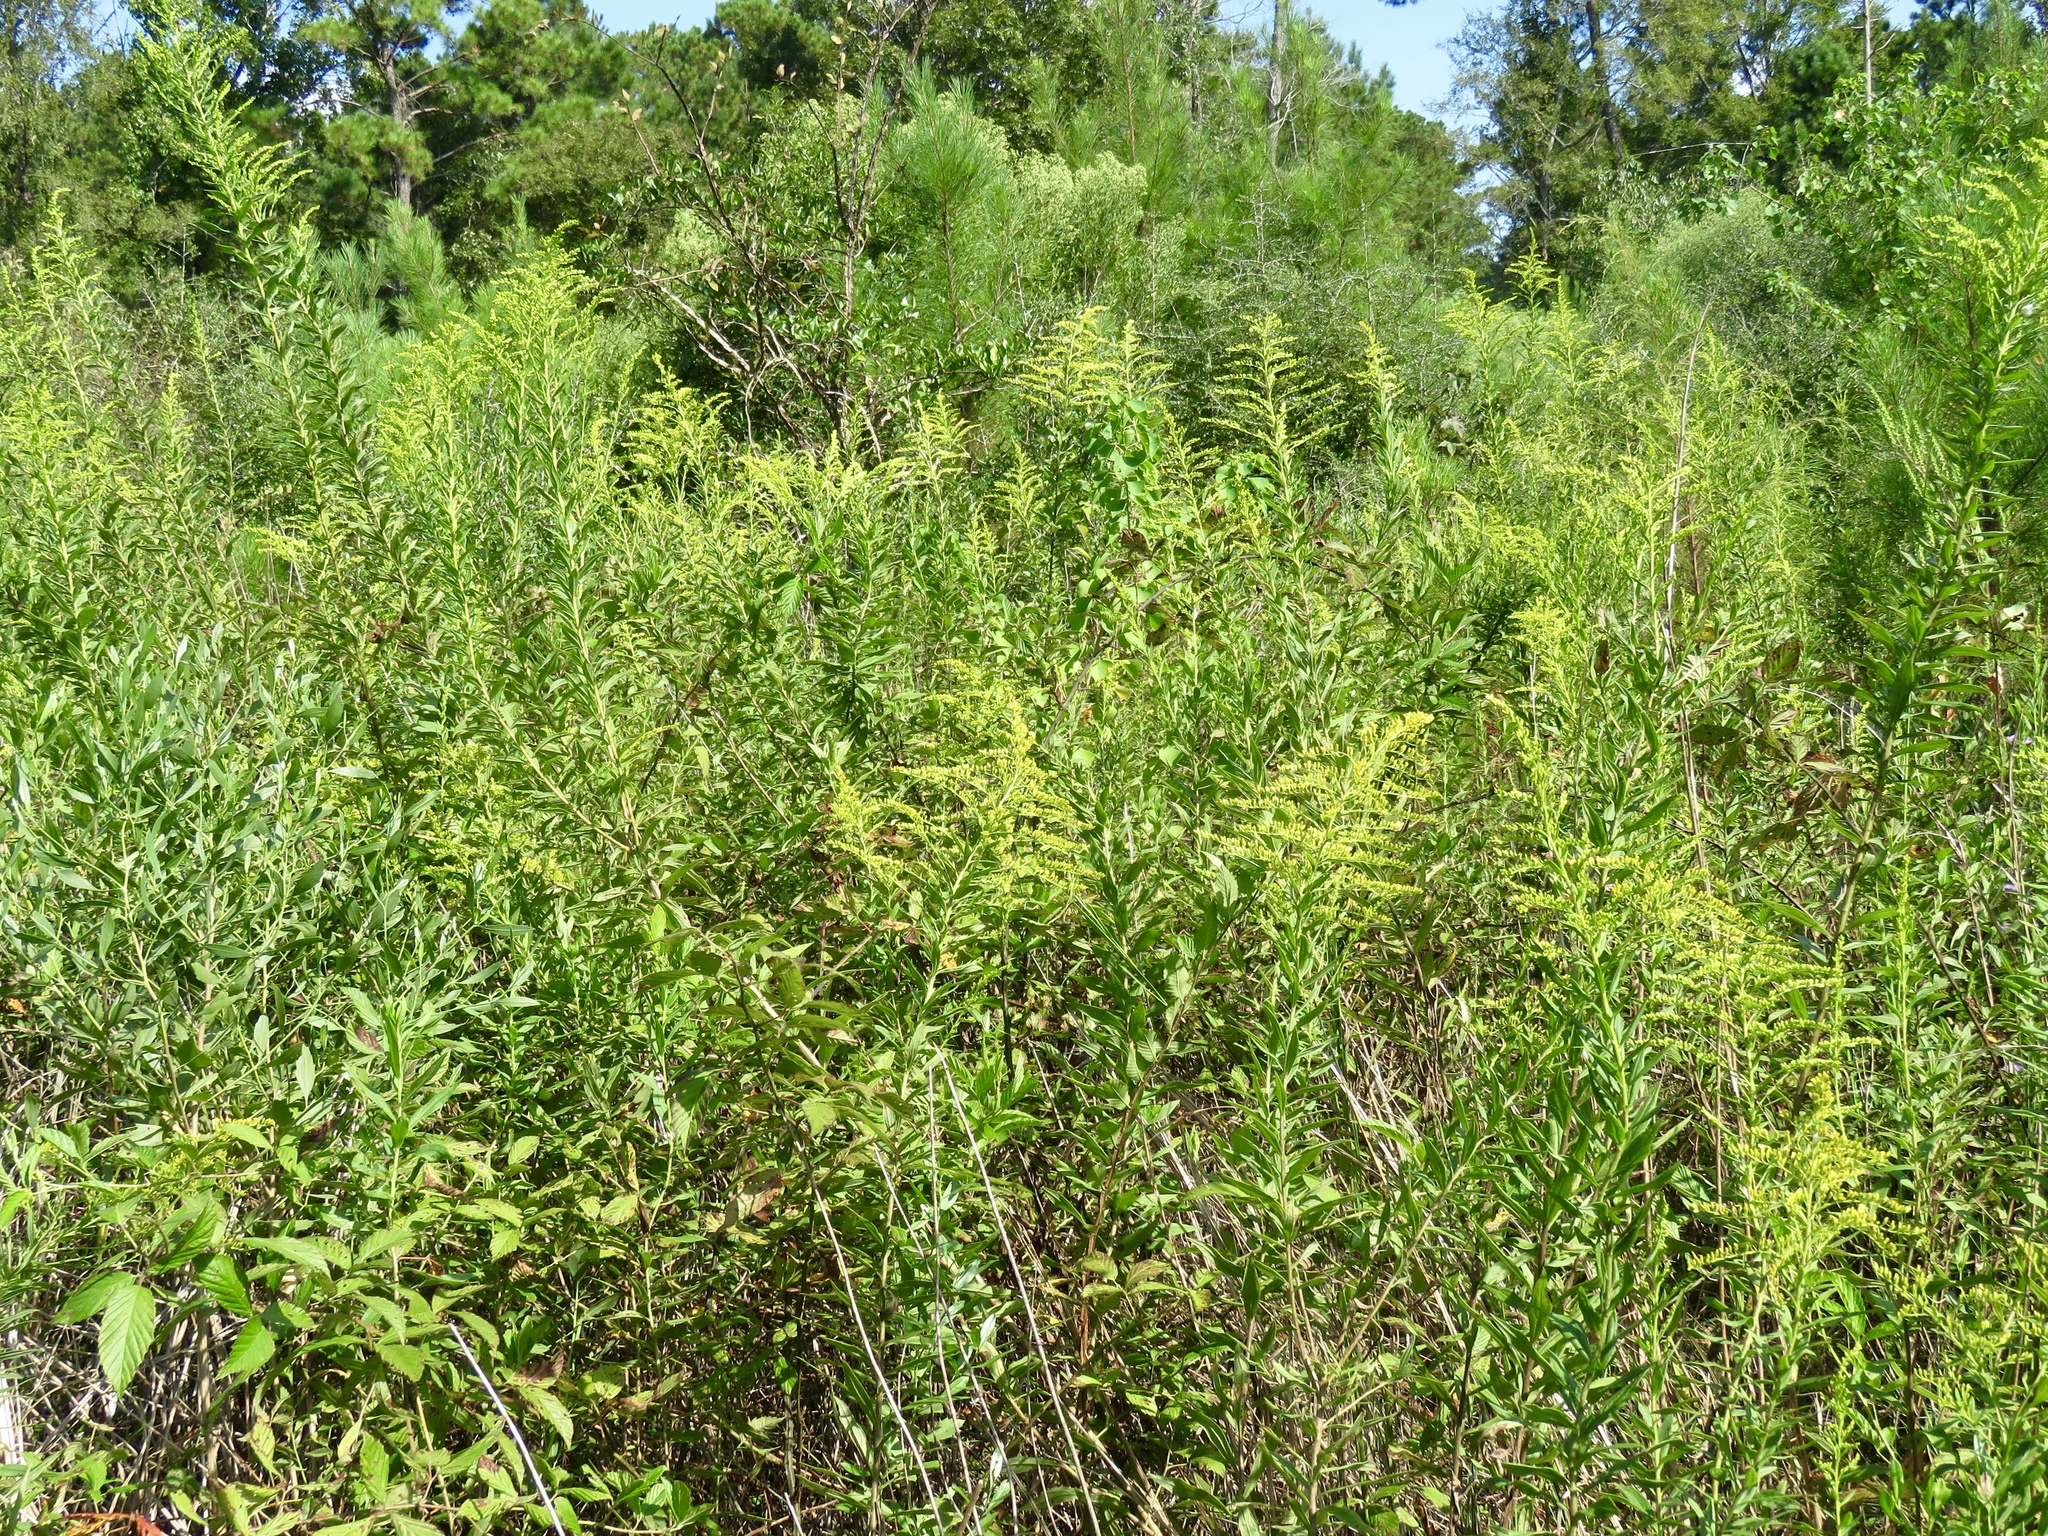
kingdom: Plantae
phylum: Tracheophyta
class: Magnoliopsida
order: Asterales
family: Asteraceae
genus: Solidago
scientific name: Solidago altissima
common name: Late goldenrod
